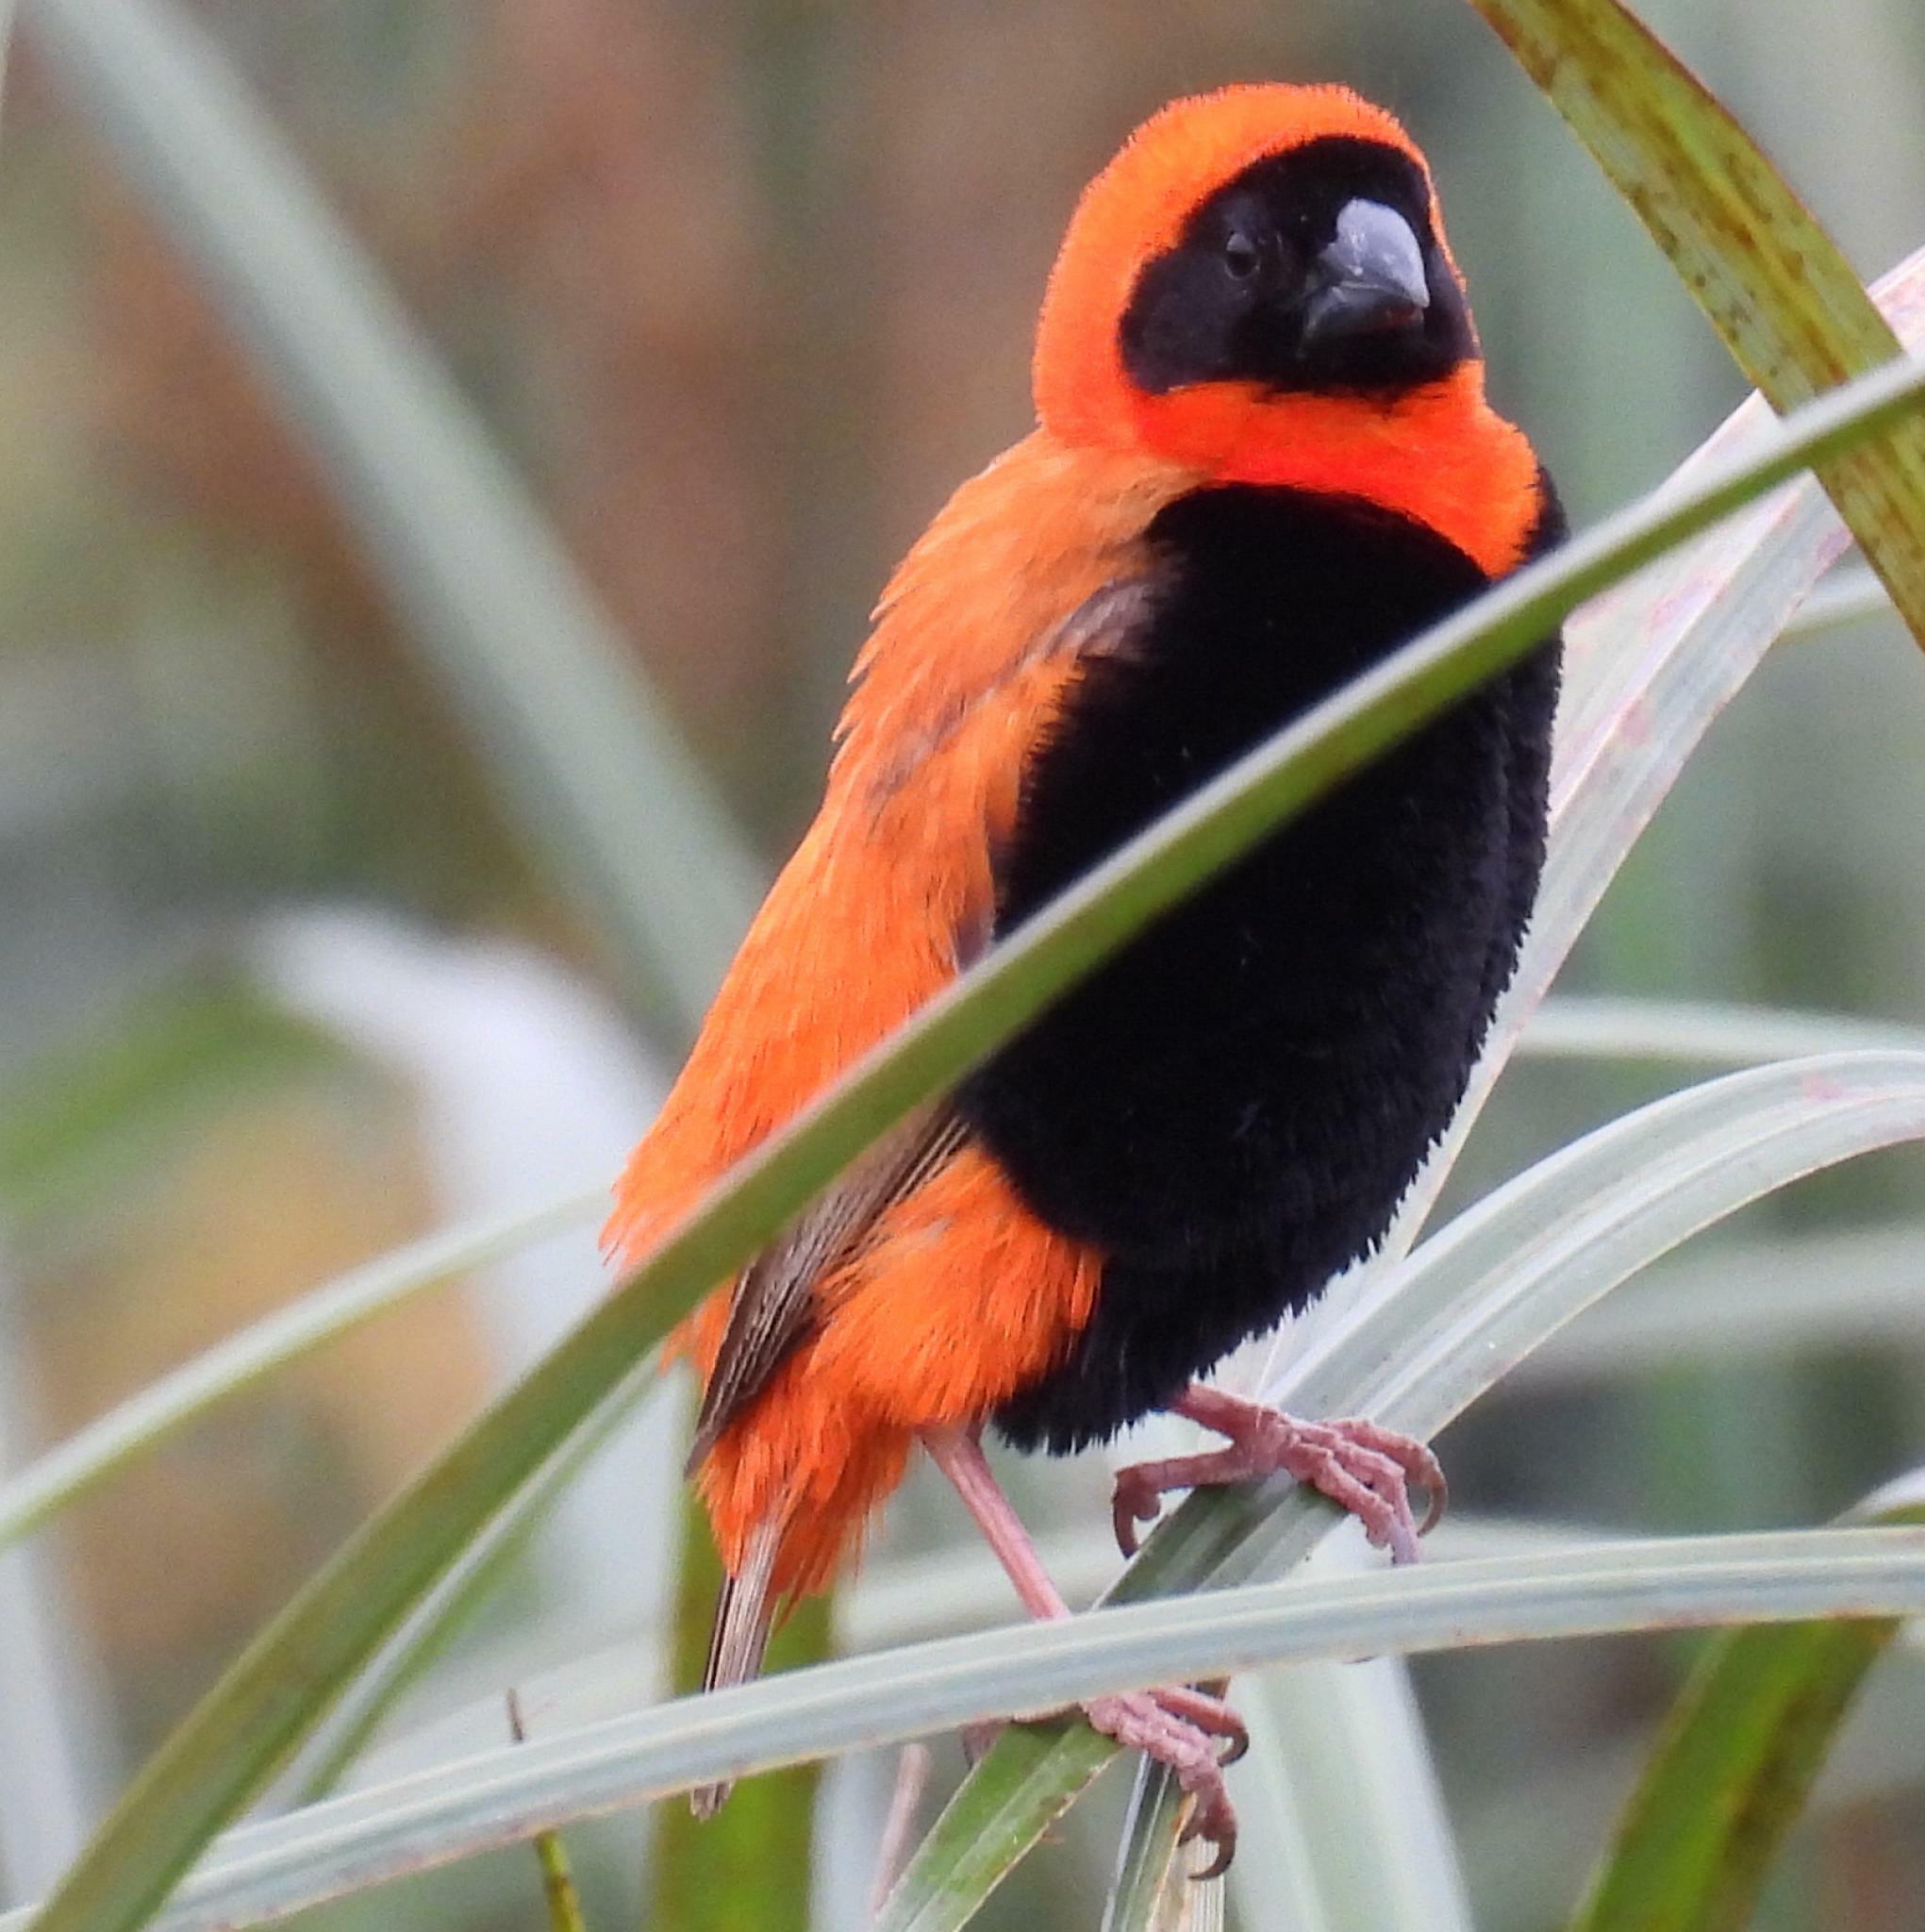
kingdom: Animalia
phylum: Chordata
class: Aves
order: Passeriformes
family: Ploceidae
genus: Euplectes
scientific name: Euplectes orix
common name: Southern red bishop
